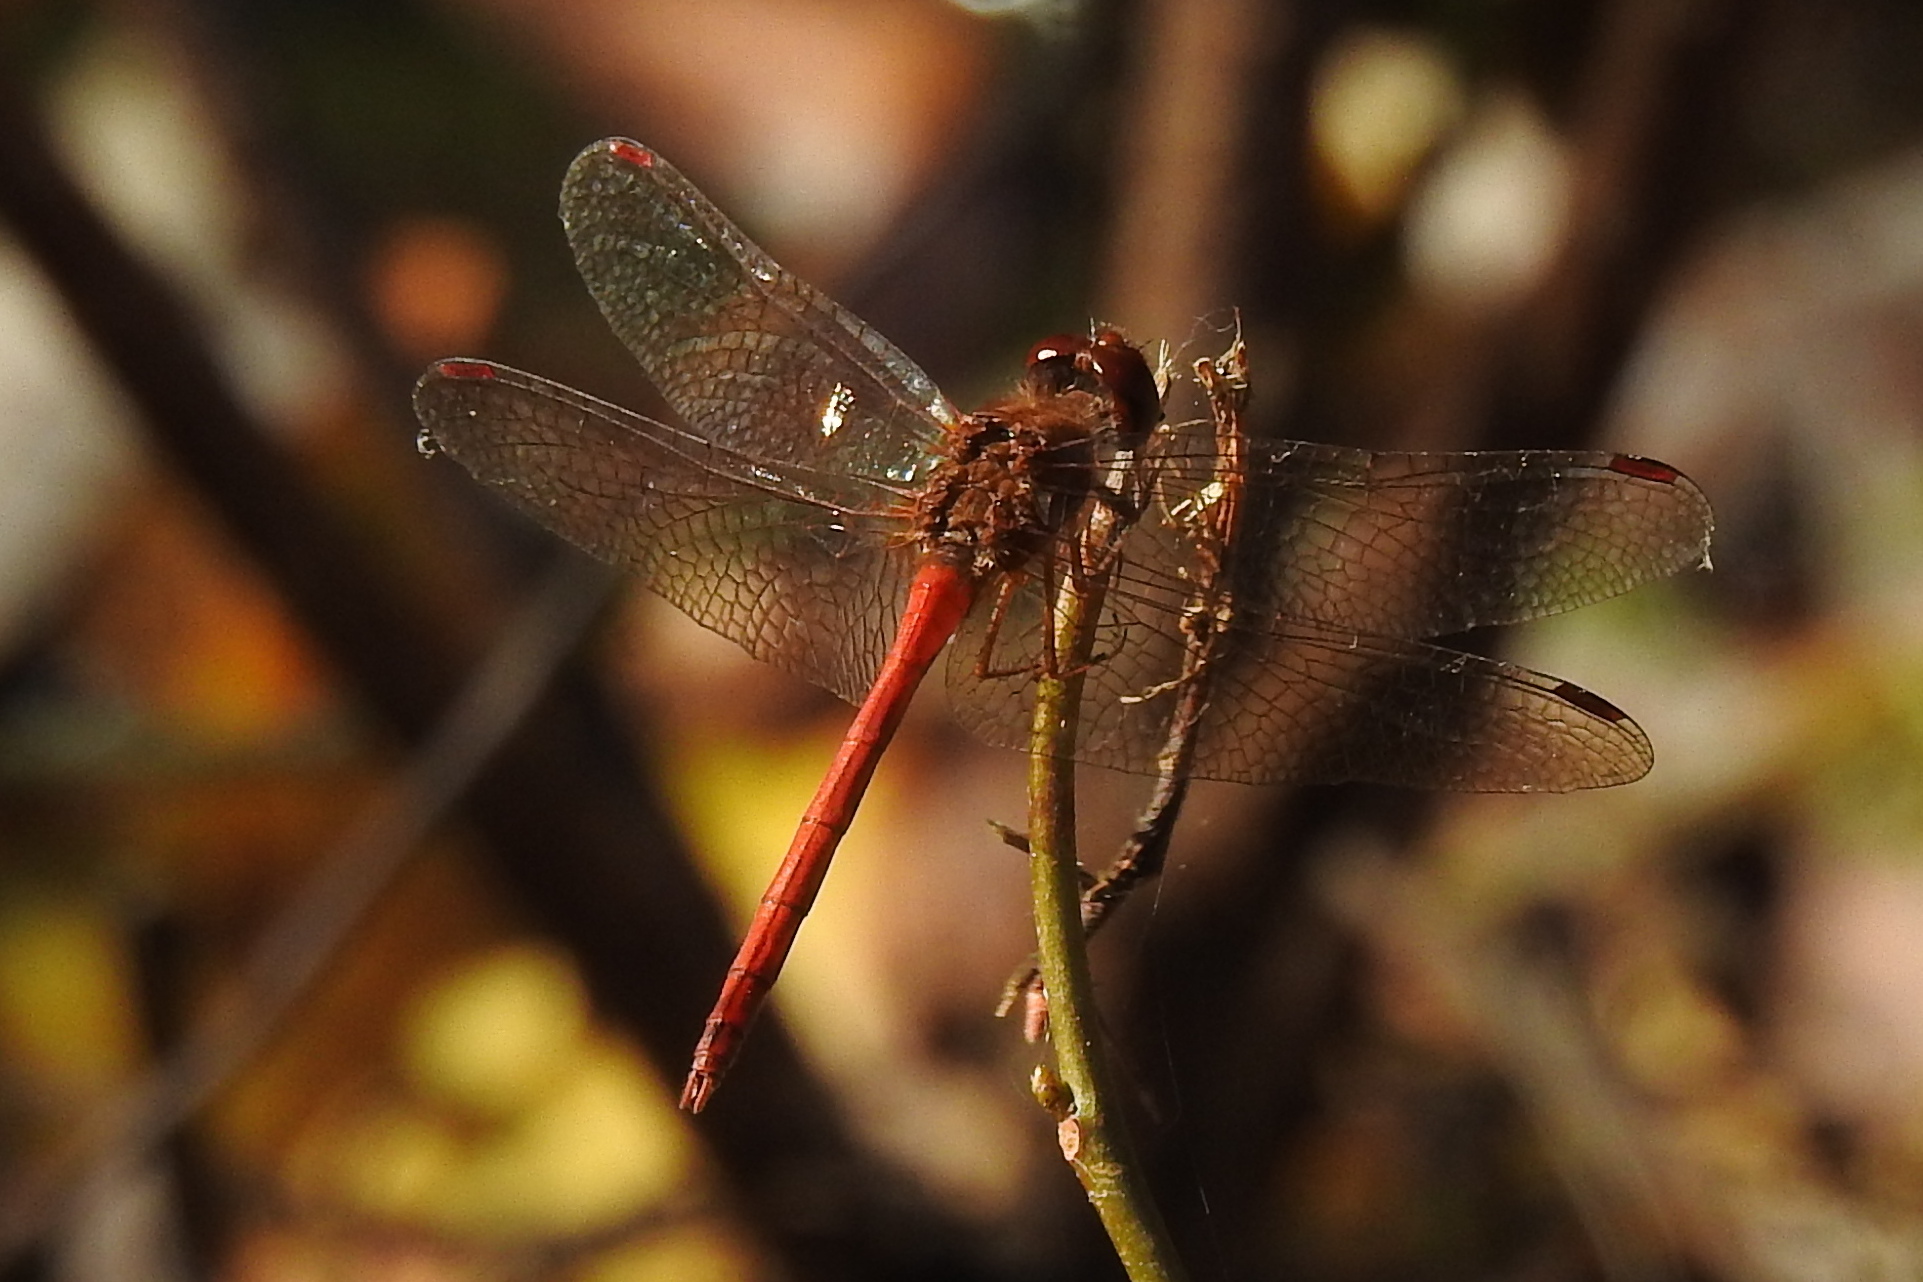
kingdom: Animalia
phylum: Arthropoda
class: Insecta
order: Odonata
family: Libellulidae
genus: Sympetrum
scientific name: Sympetrum vicinum
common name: Autumn meadowhawk
